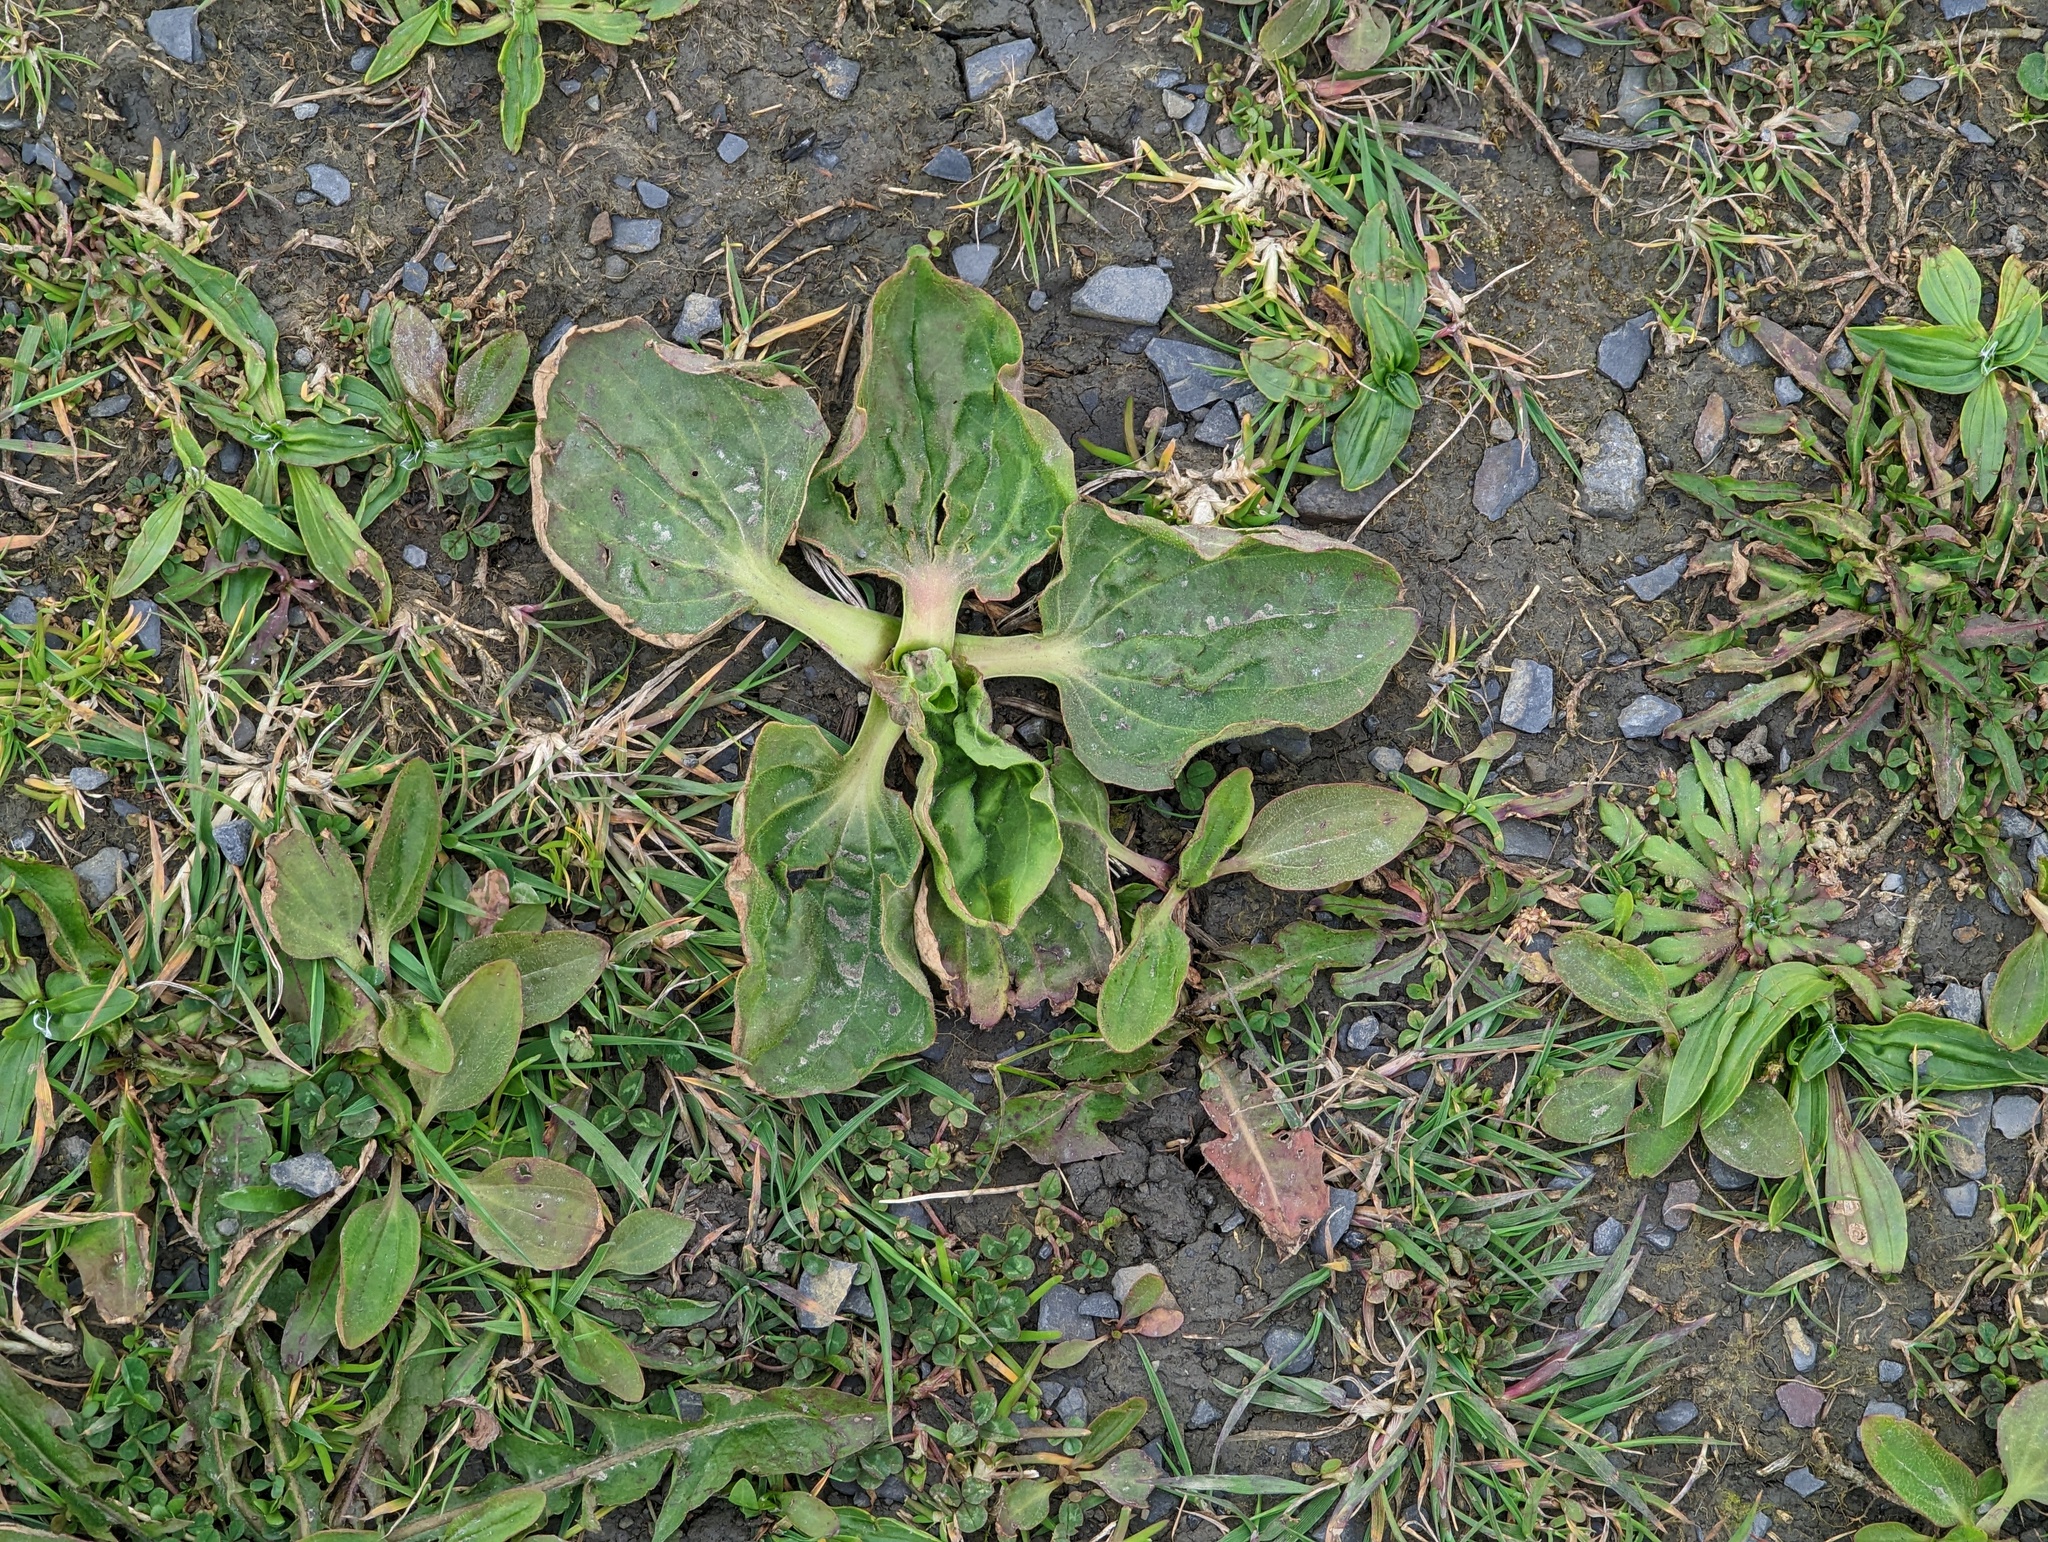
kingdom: Plantae
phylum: Tracheophyta
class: Magnoliopsida
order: Lamiales
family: Plantaginaceae
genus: Plantago
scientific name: Plantago major
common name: Common plantain
